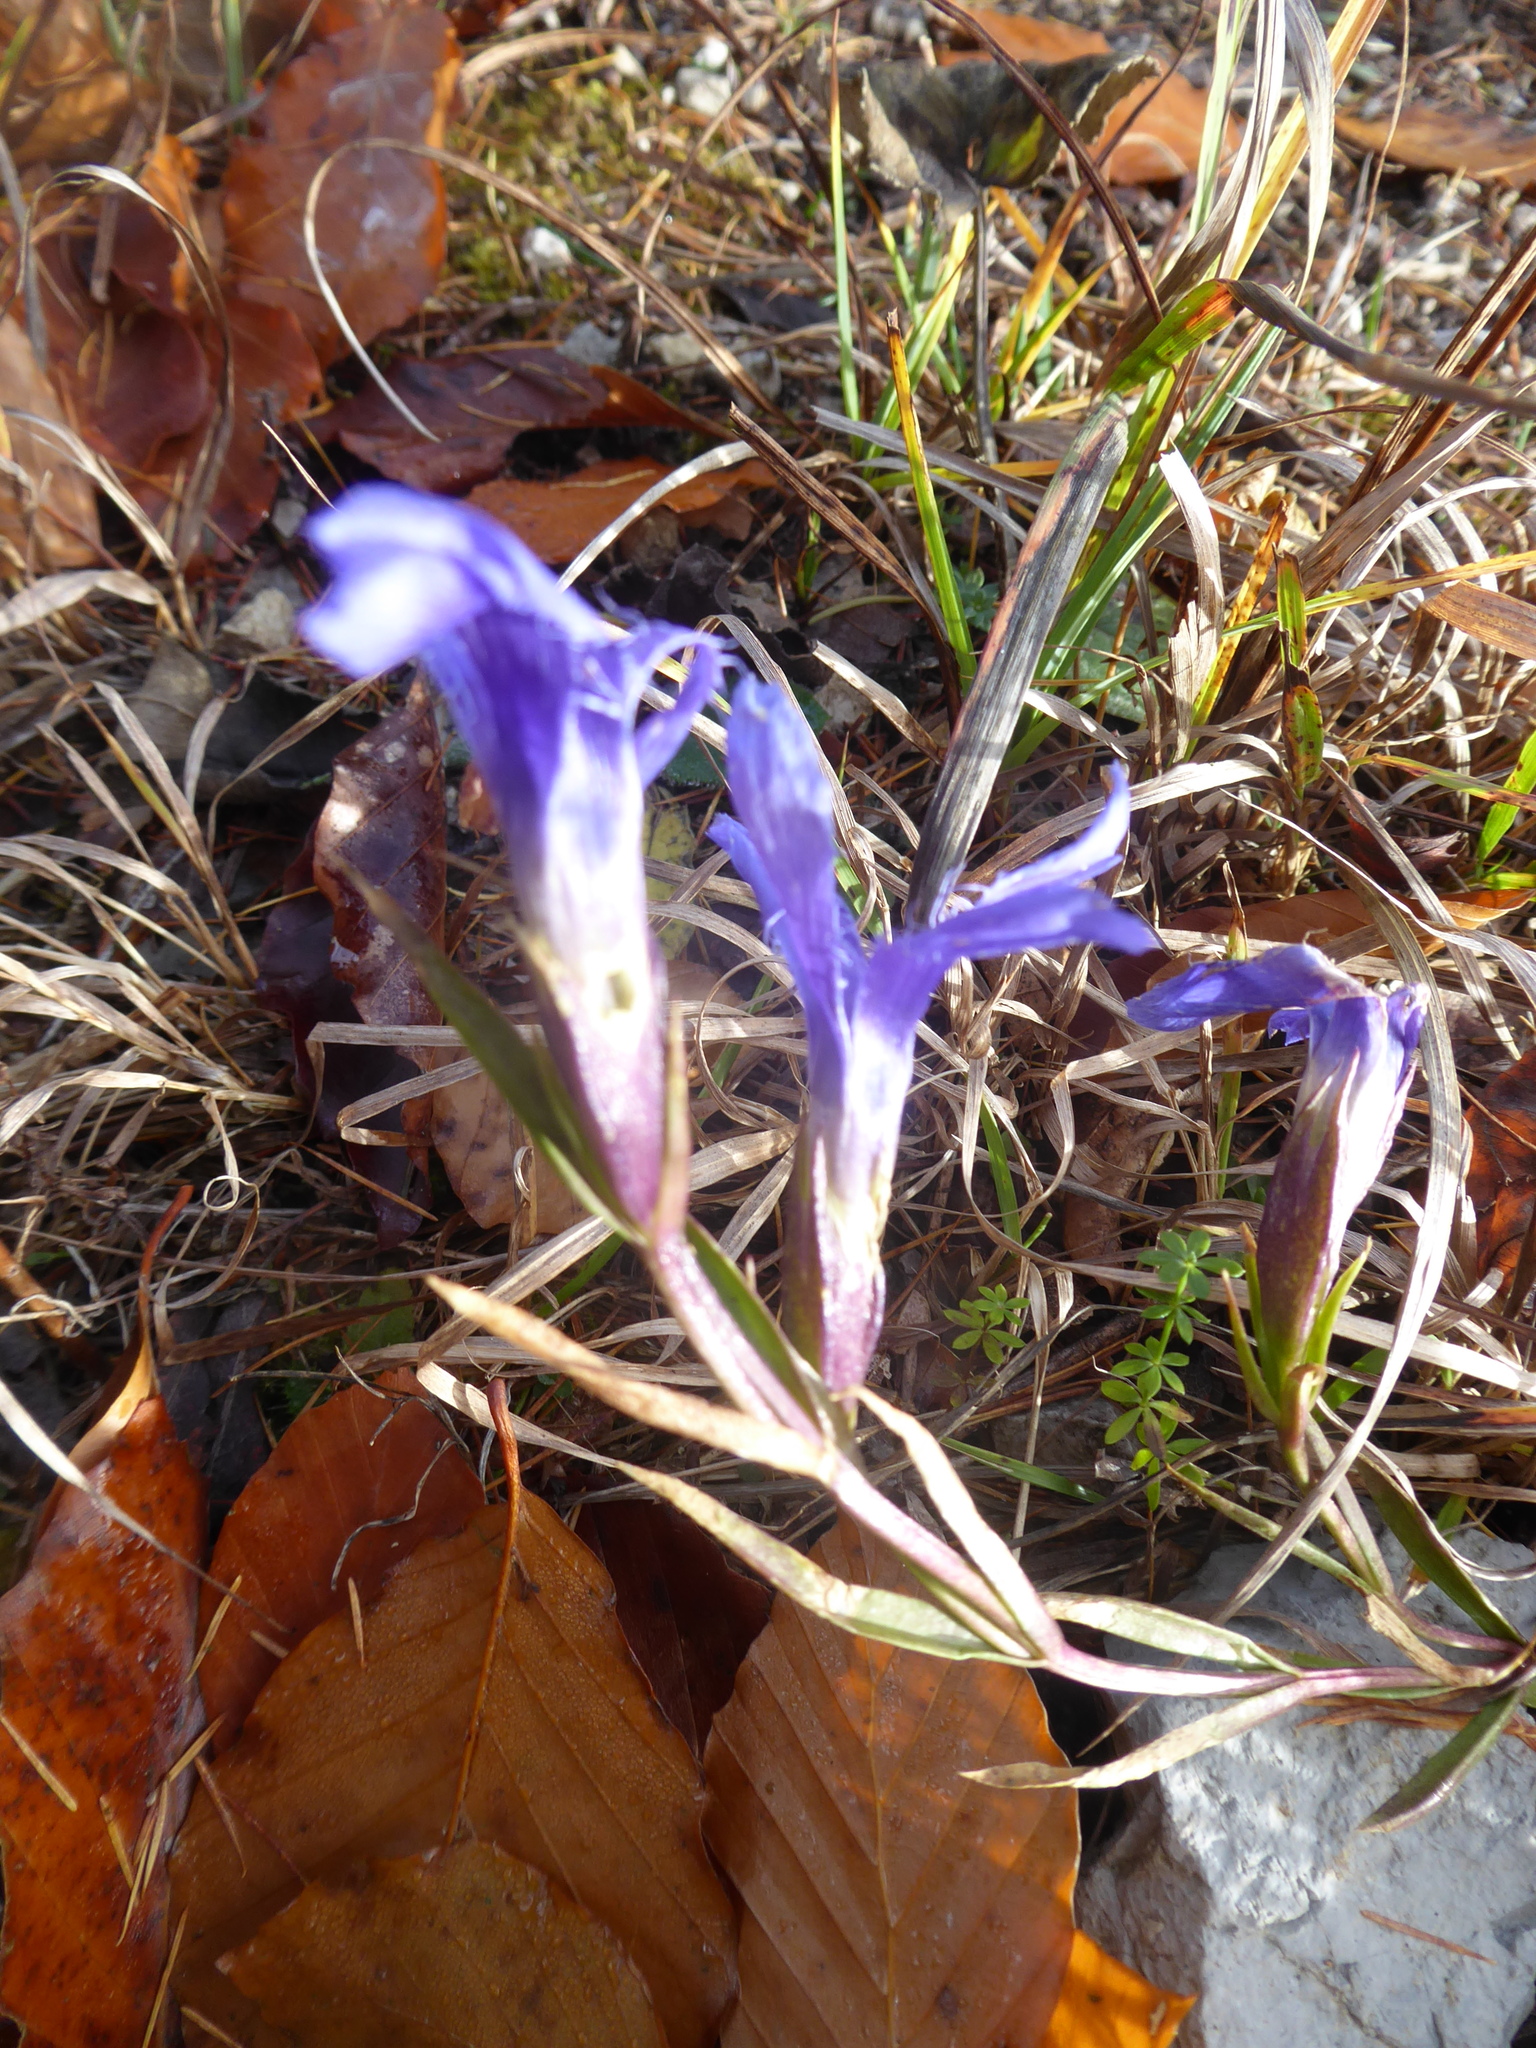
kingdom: Plantae
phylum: Tracheophyta
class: Magnoliopsida
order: Gentianales
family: Gentianaceae
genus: Gentianopsis
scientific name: Gentianopsis ciliata
